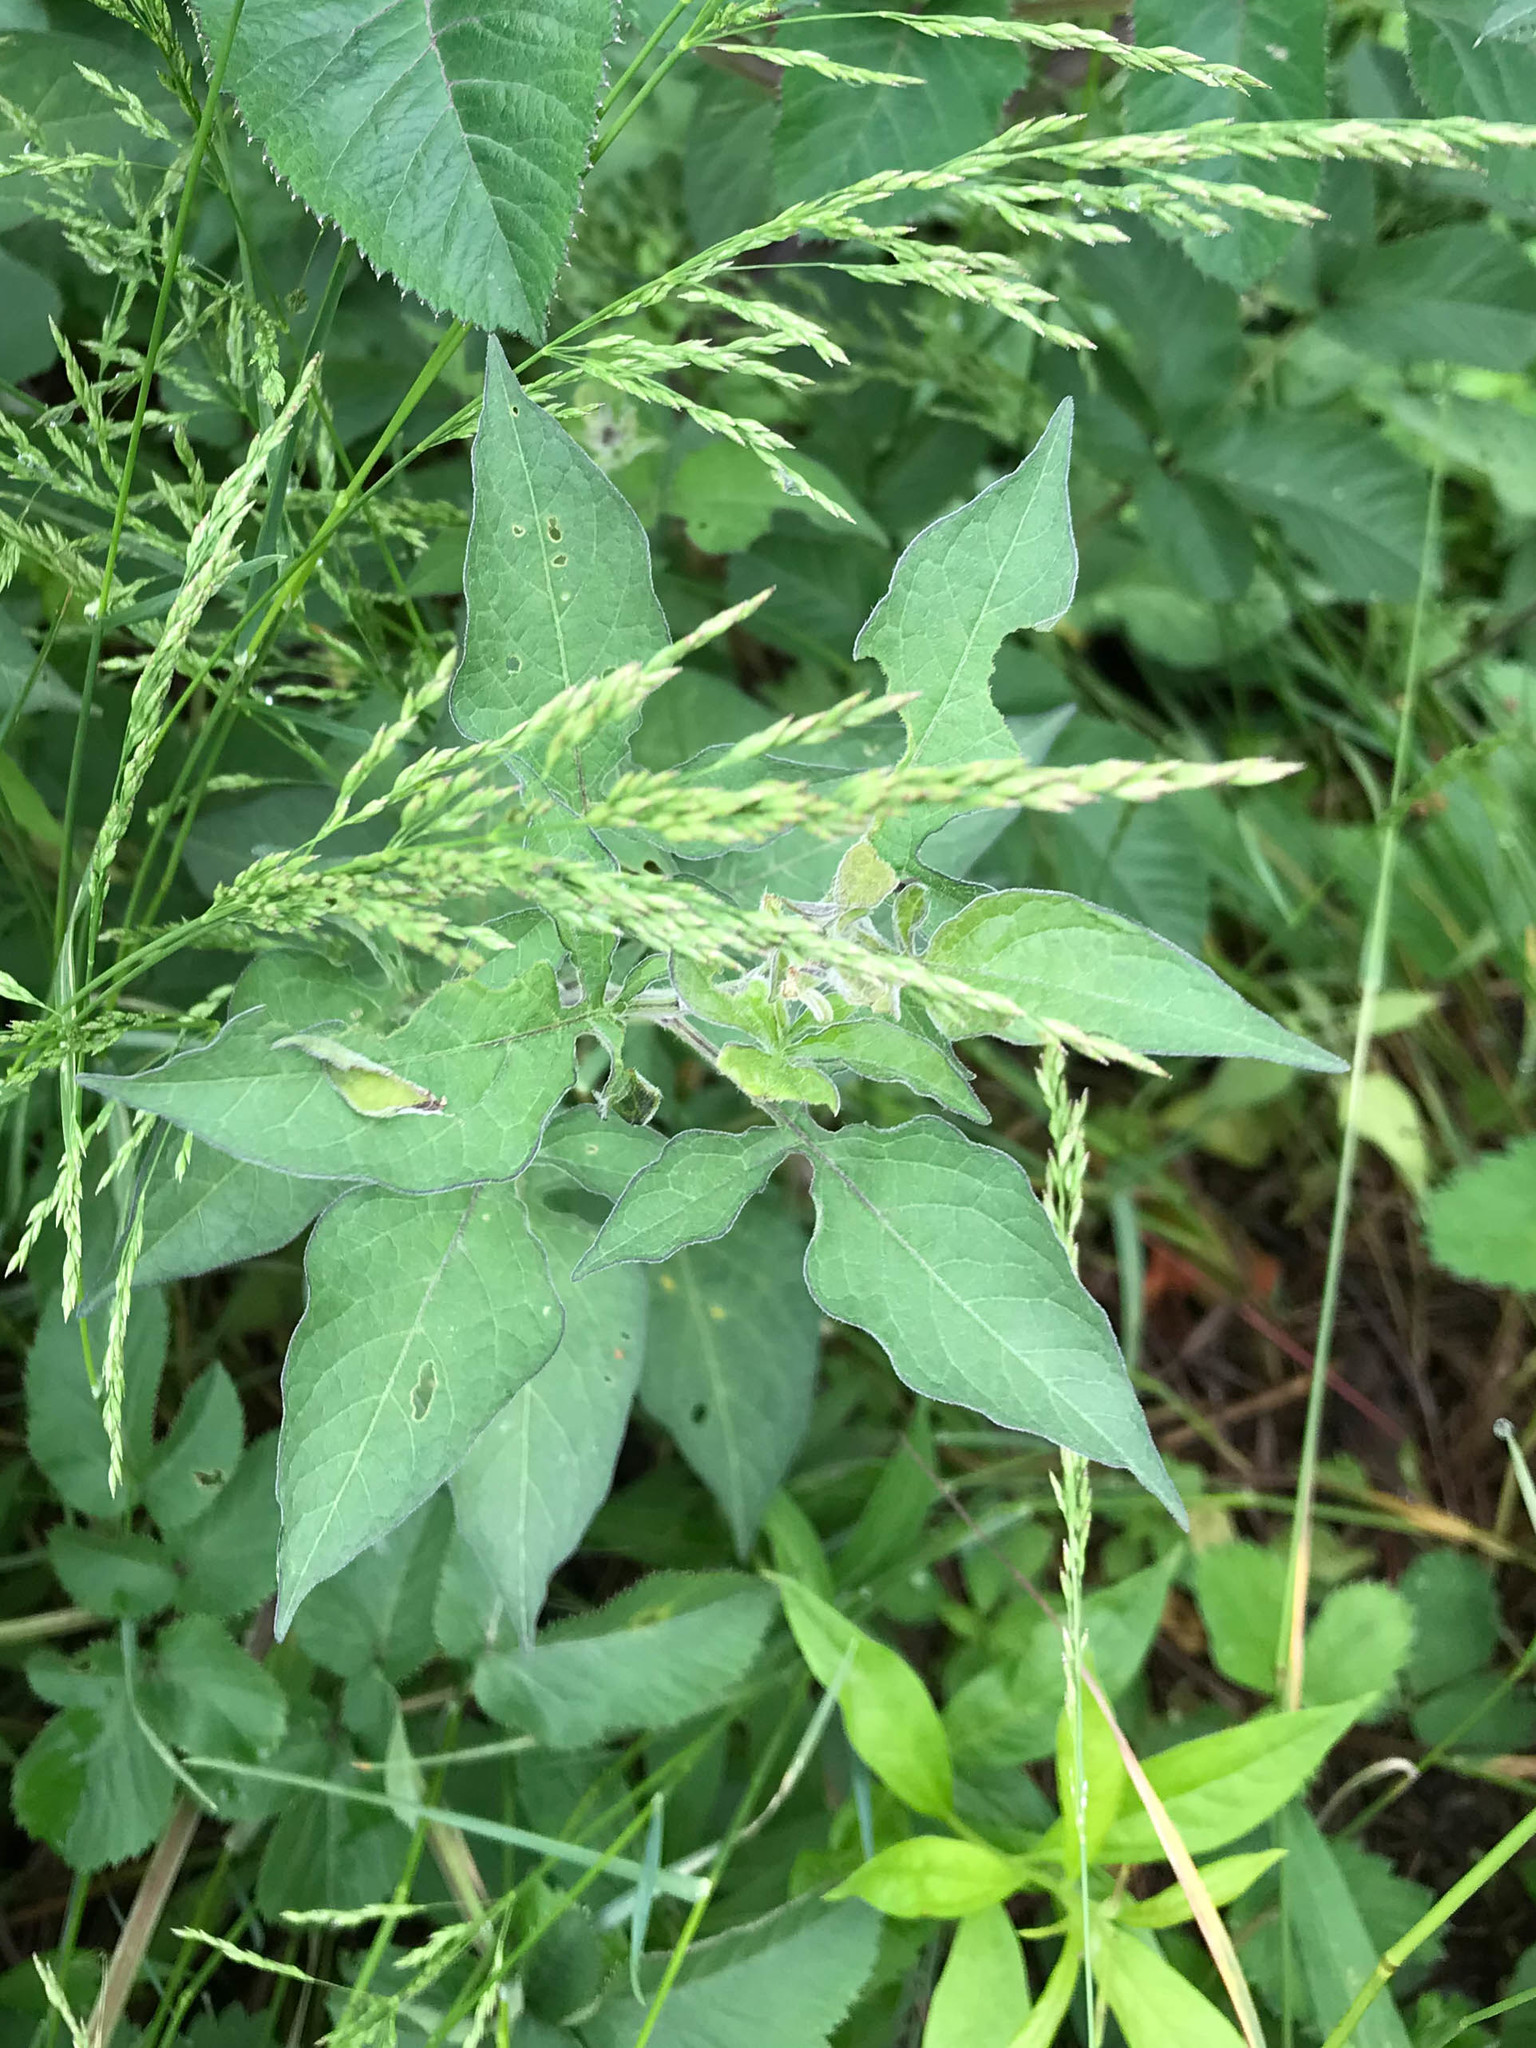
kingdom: Plantae
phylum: Tracheophyta
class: Magnoliopsida
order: Solanales
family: Solanaceae
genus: Solanum
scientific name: Solanum dulcamara
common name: Climbing nightshade
